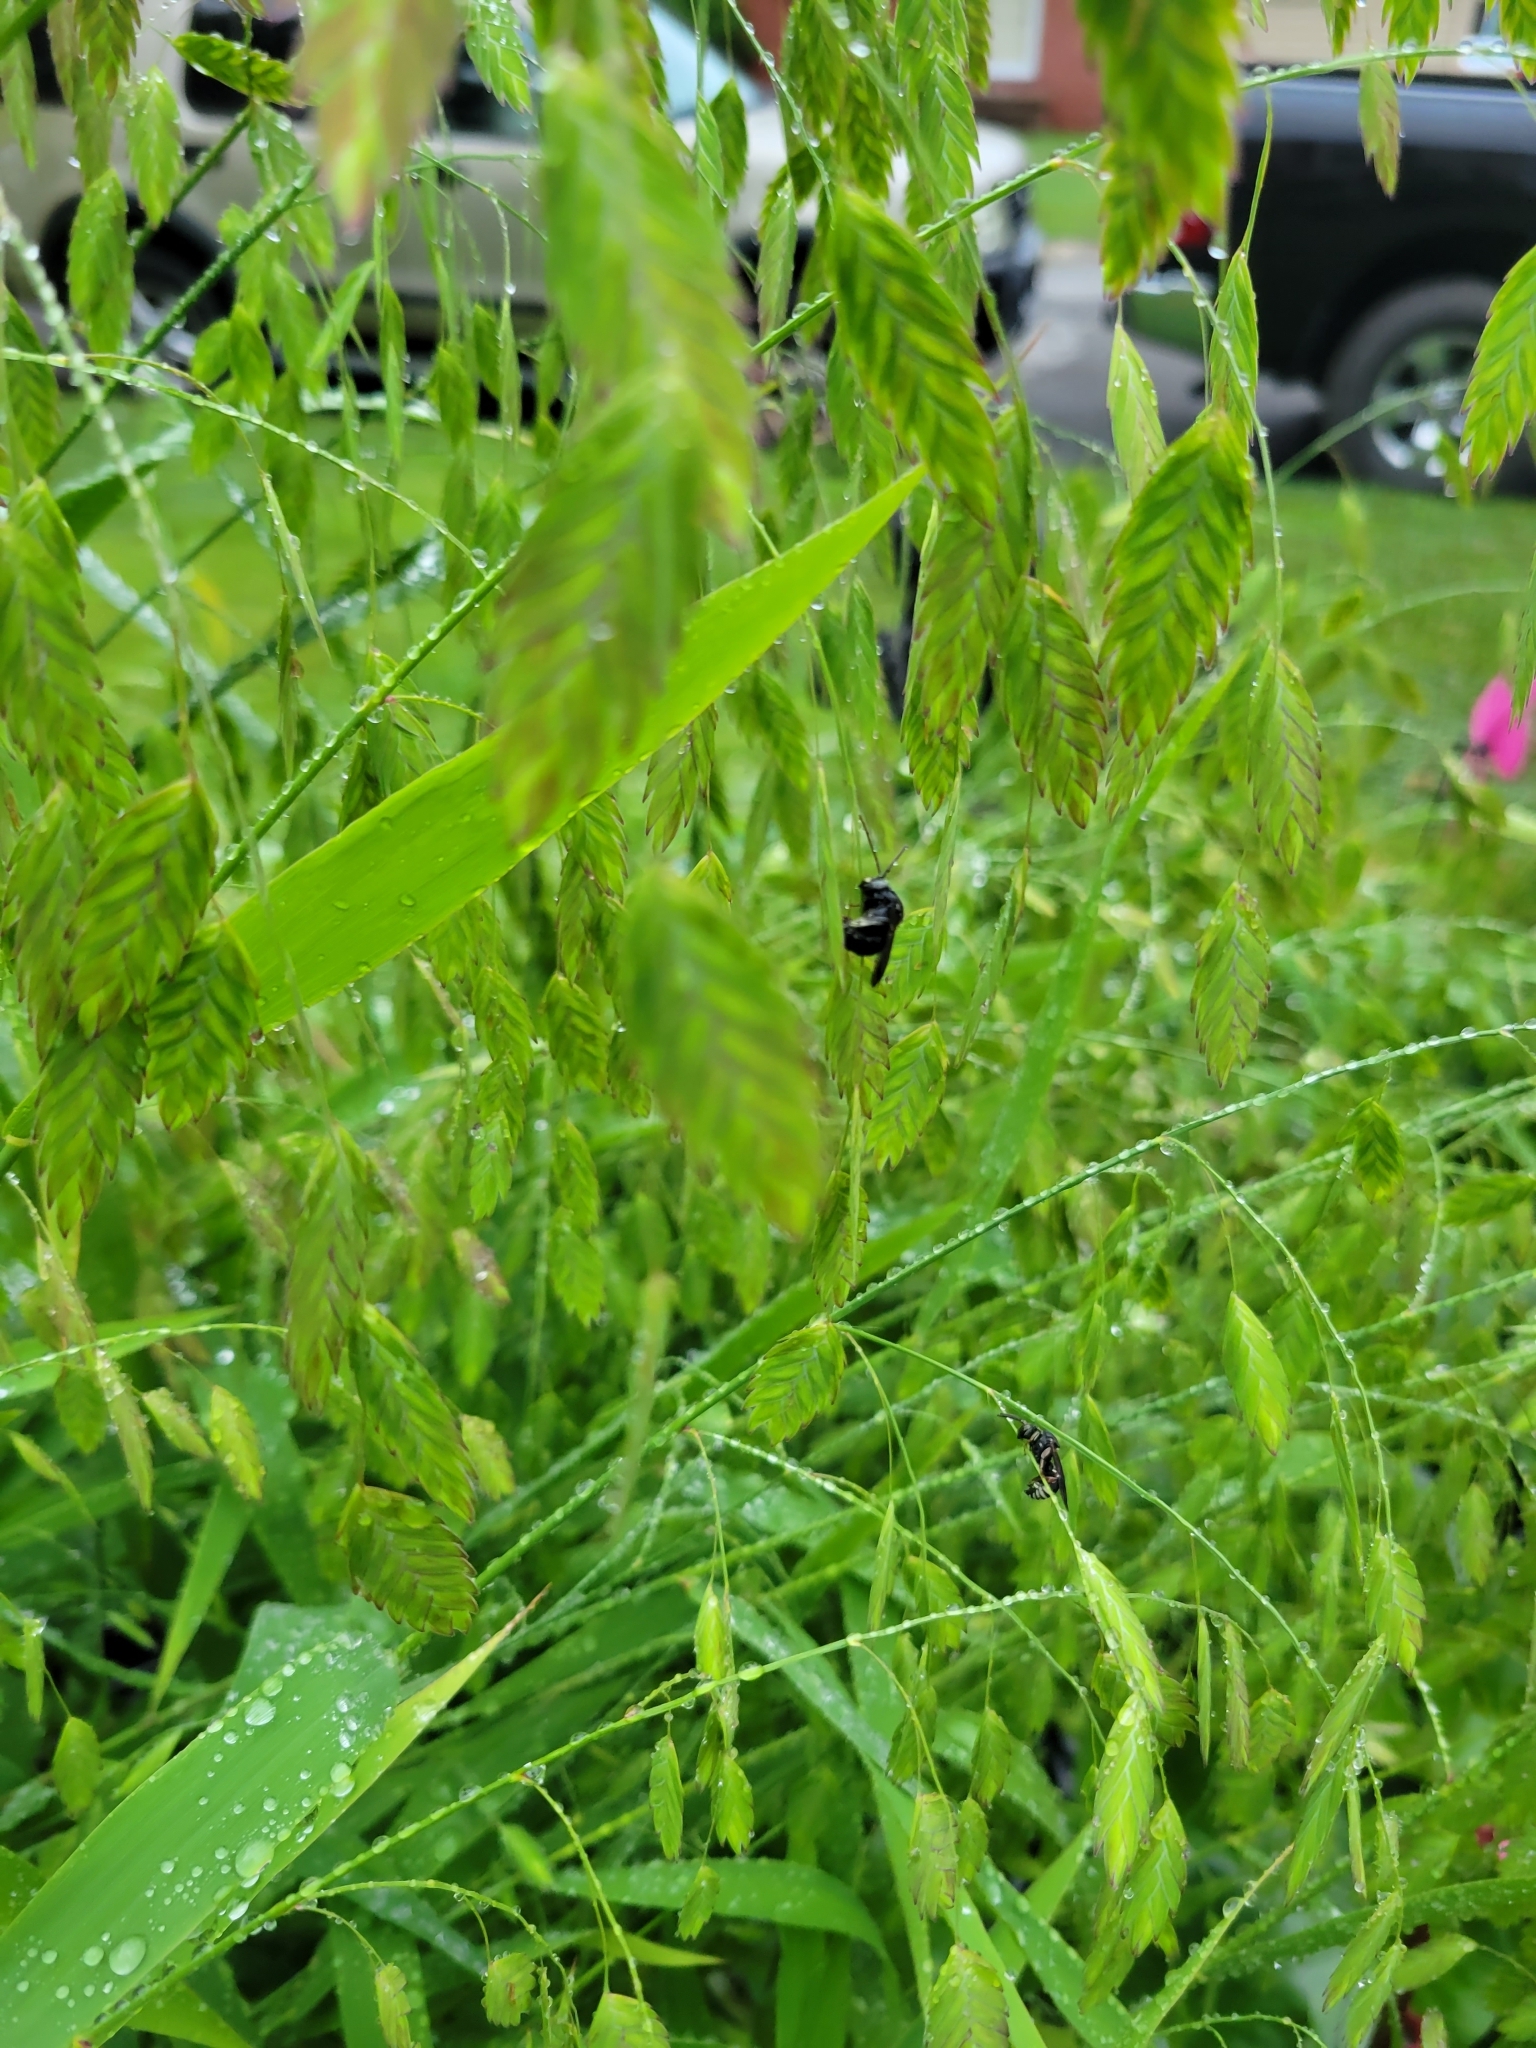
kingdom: Animalia
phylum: Arthropoda
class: Insecta
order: Hymenoptera
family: Apidae
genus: Melissodes
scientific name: Melissodes bimaculatus
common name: Two-spotted long-horned bee
